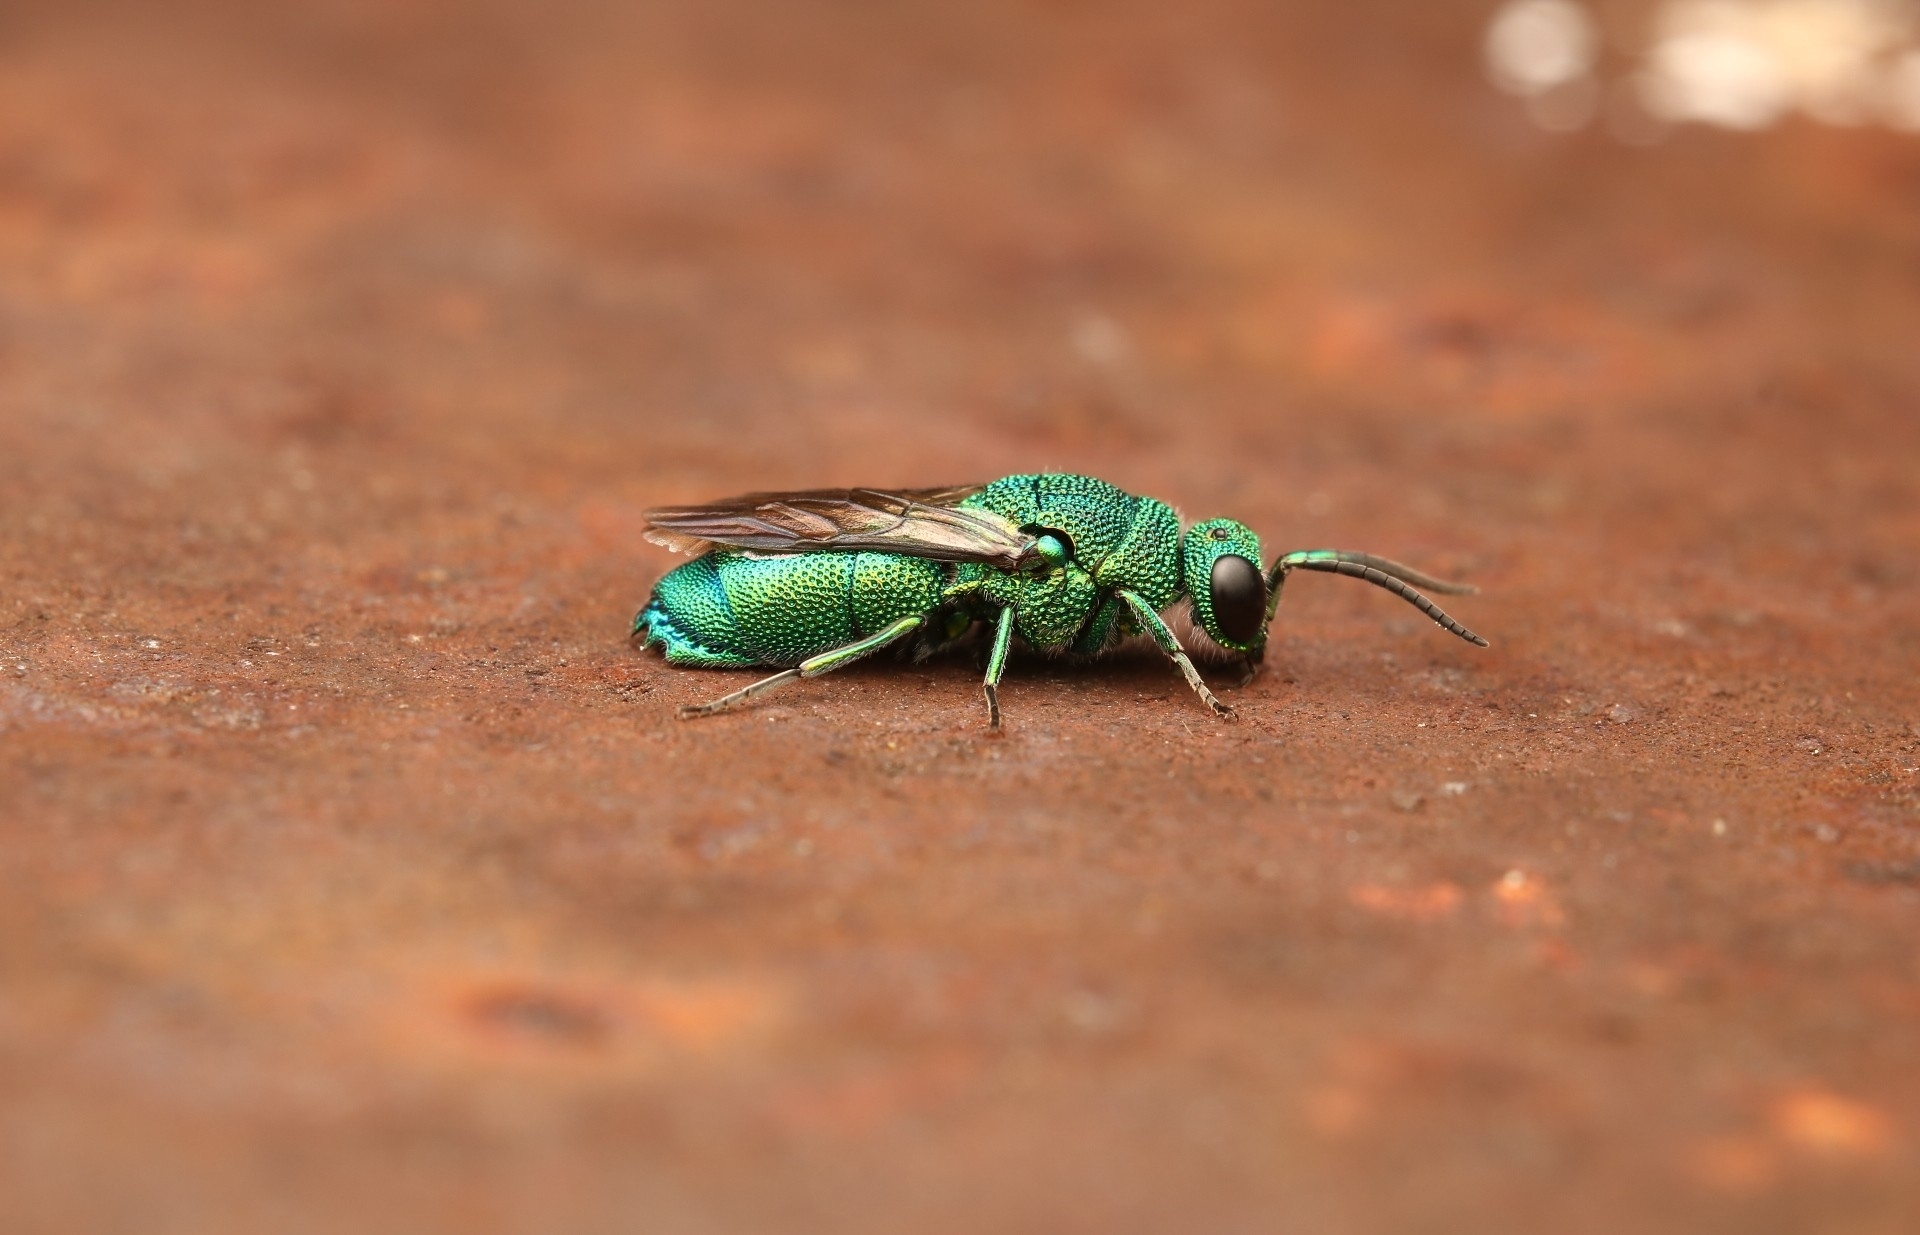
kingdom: Animalia
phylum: Arthropoda
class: Insecta
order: Hymenoptera
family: Chrysididae
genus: Chrysis
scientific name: Chrysis
